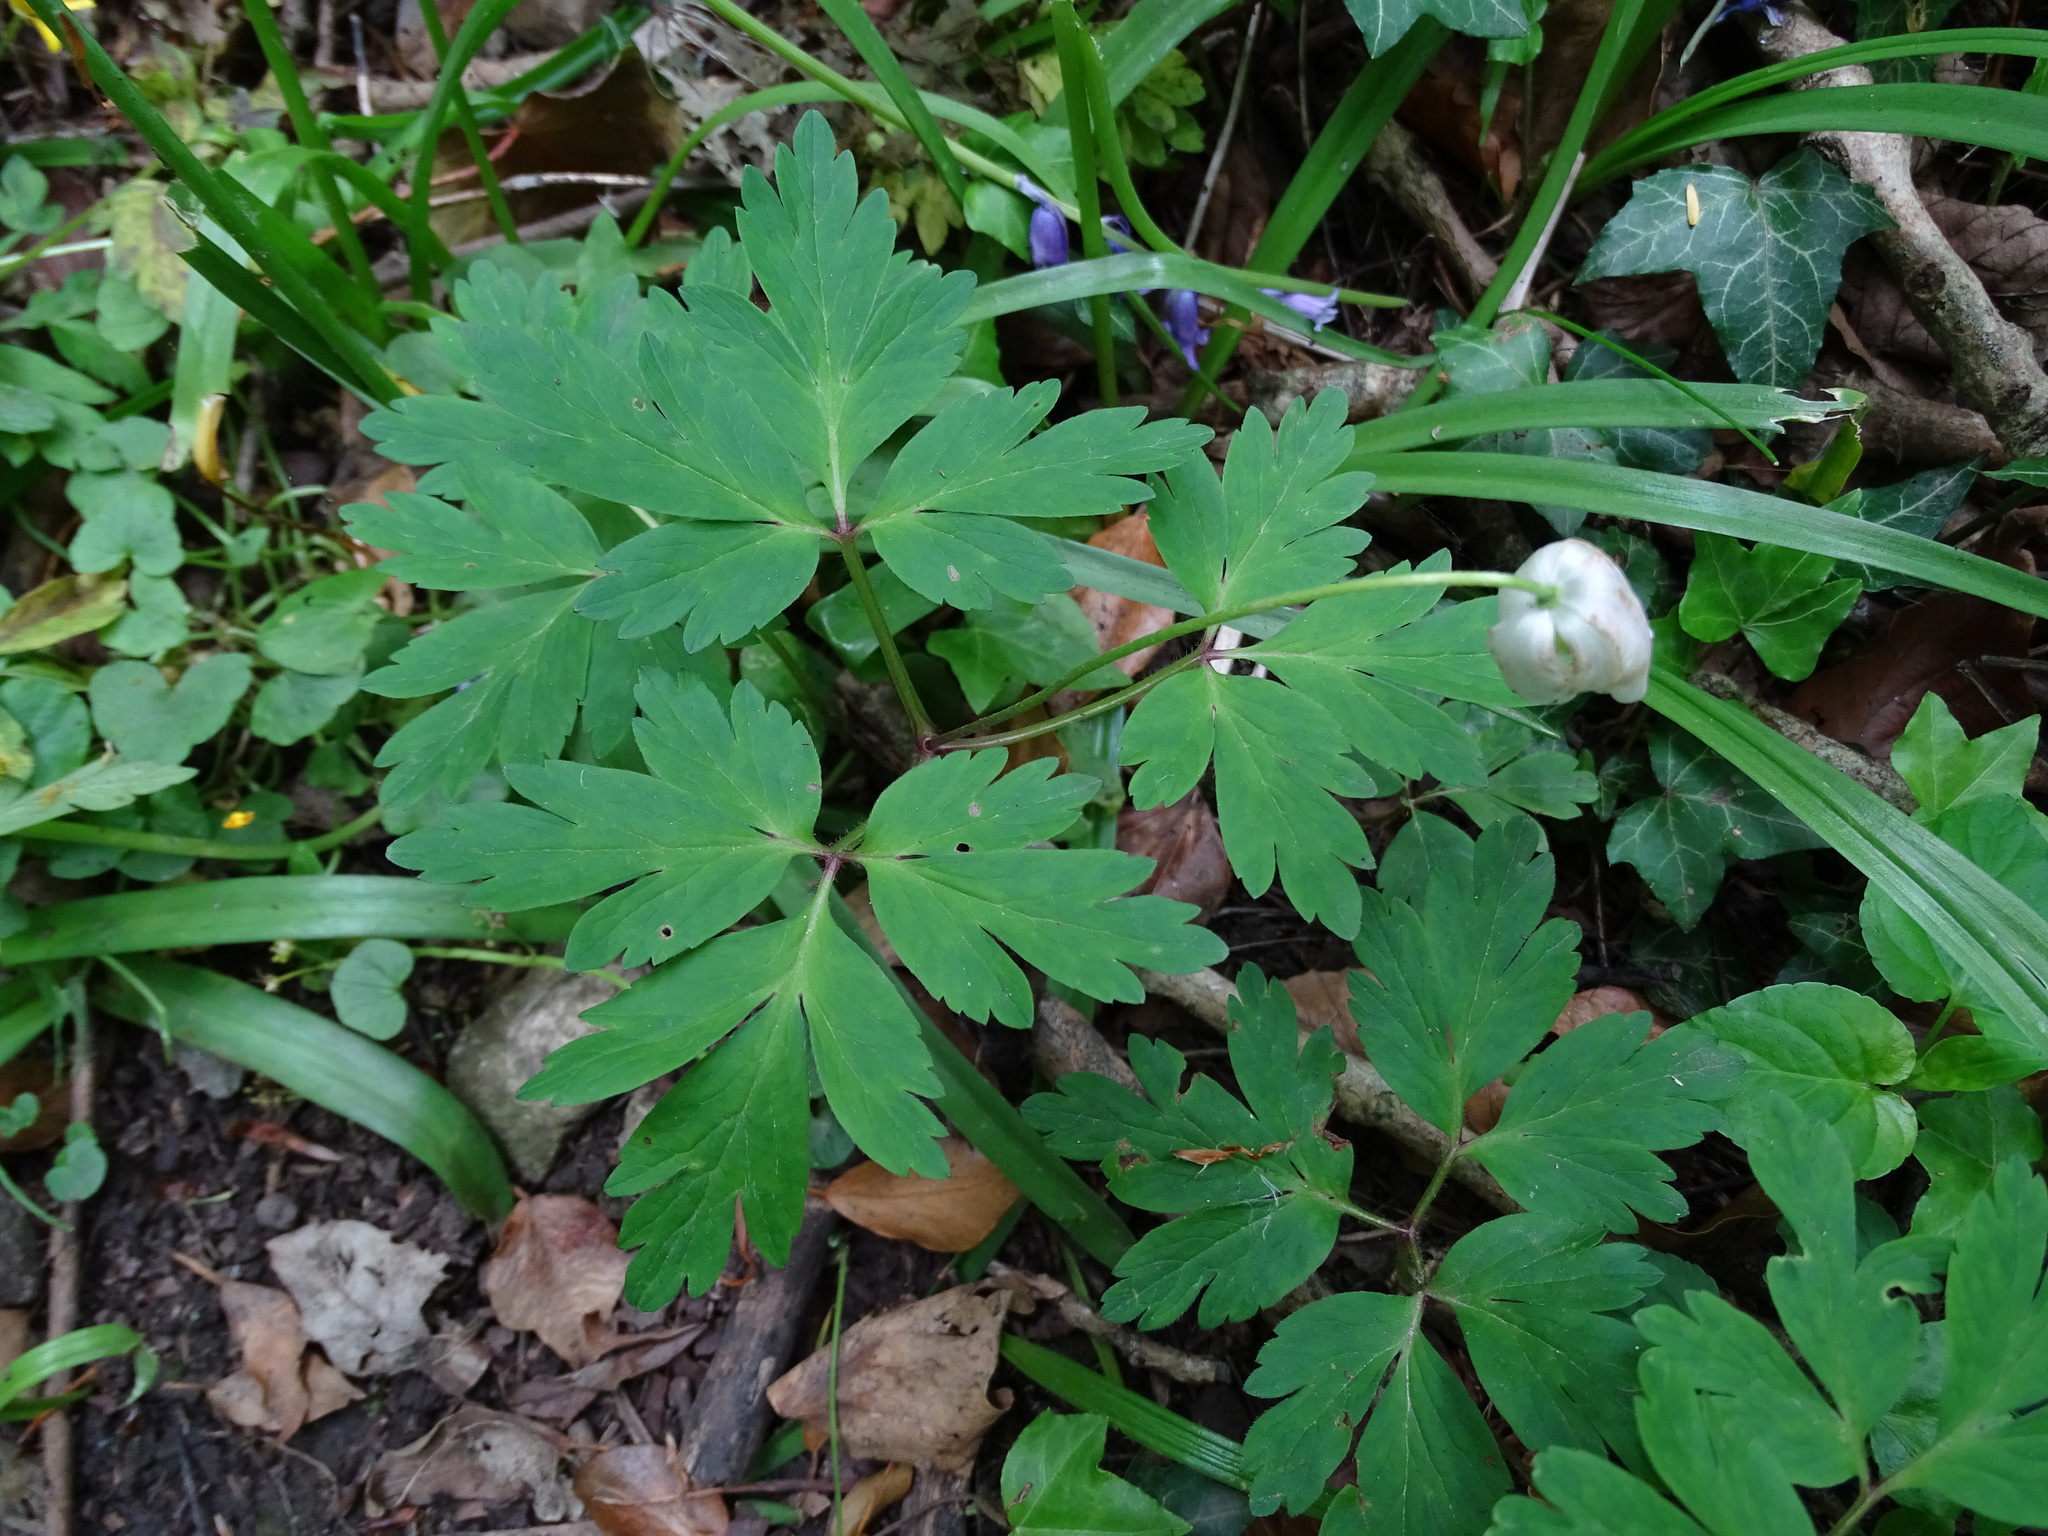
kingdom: Plantae
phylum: Tracheophyta
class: Magnoliopsida
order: Ranunculales
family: Ranunculaceae
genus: Anemone
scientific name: Anemone nemorosa
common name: Wood anemone
